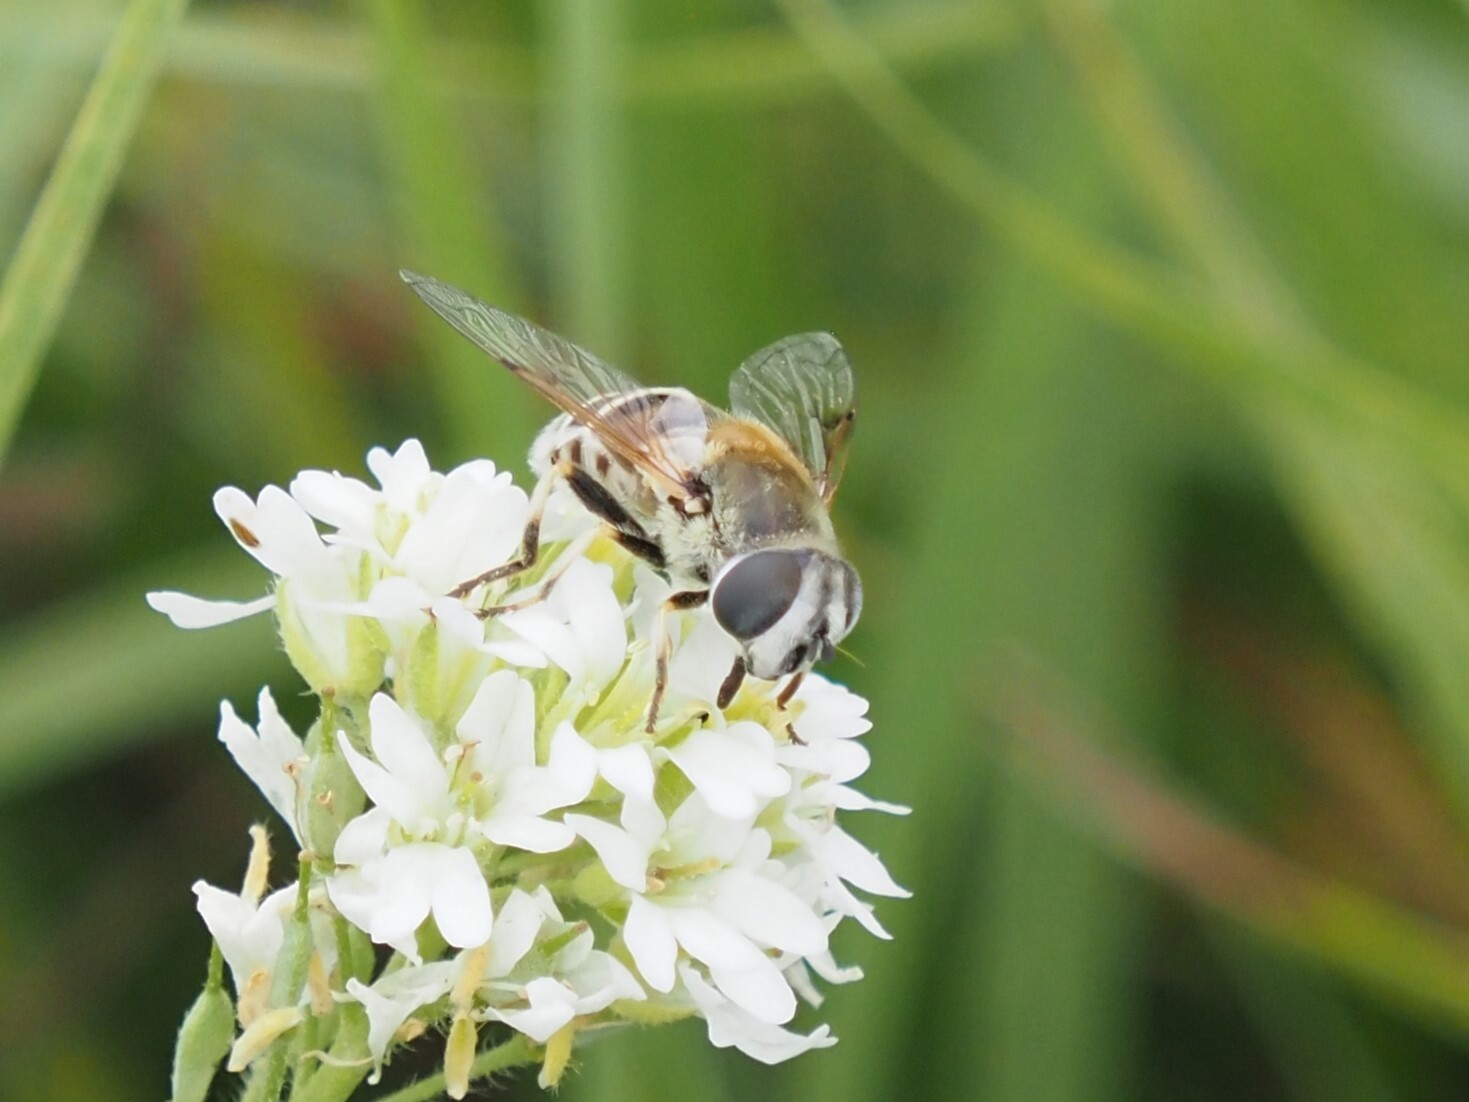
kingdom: Animalia
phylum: Arthropoda
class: Insecta
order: Diptera
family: Syrphidae
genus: Eristalis
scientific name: Eristalis stipator
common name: Yellow-shouldered drone fly
